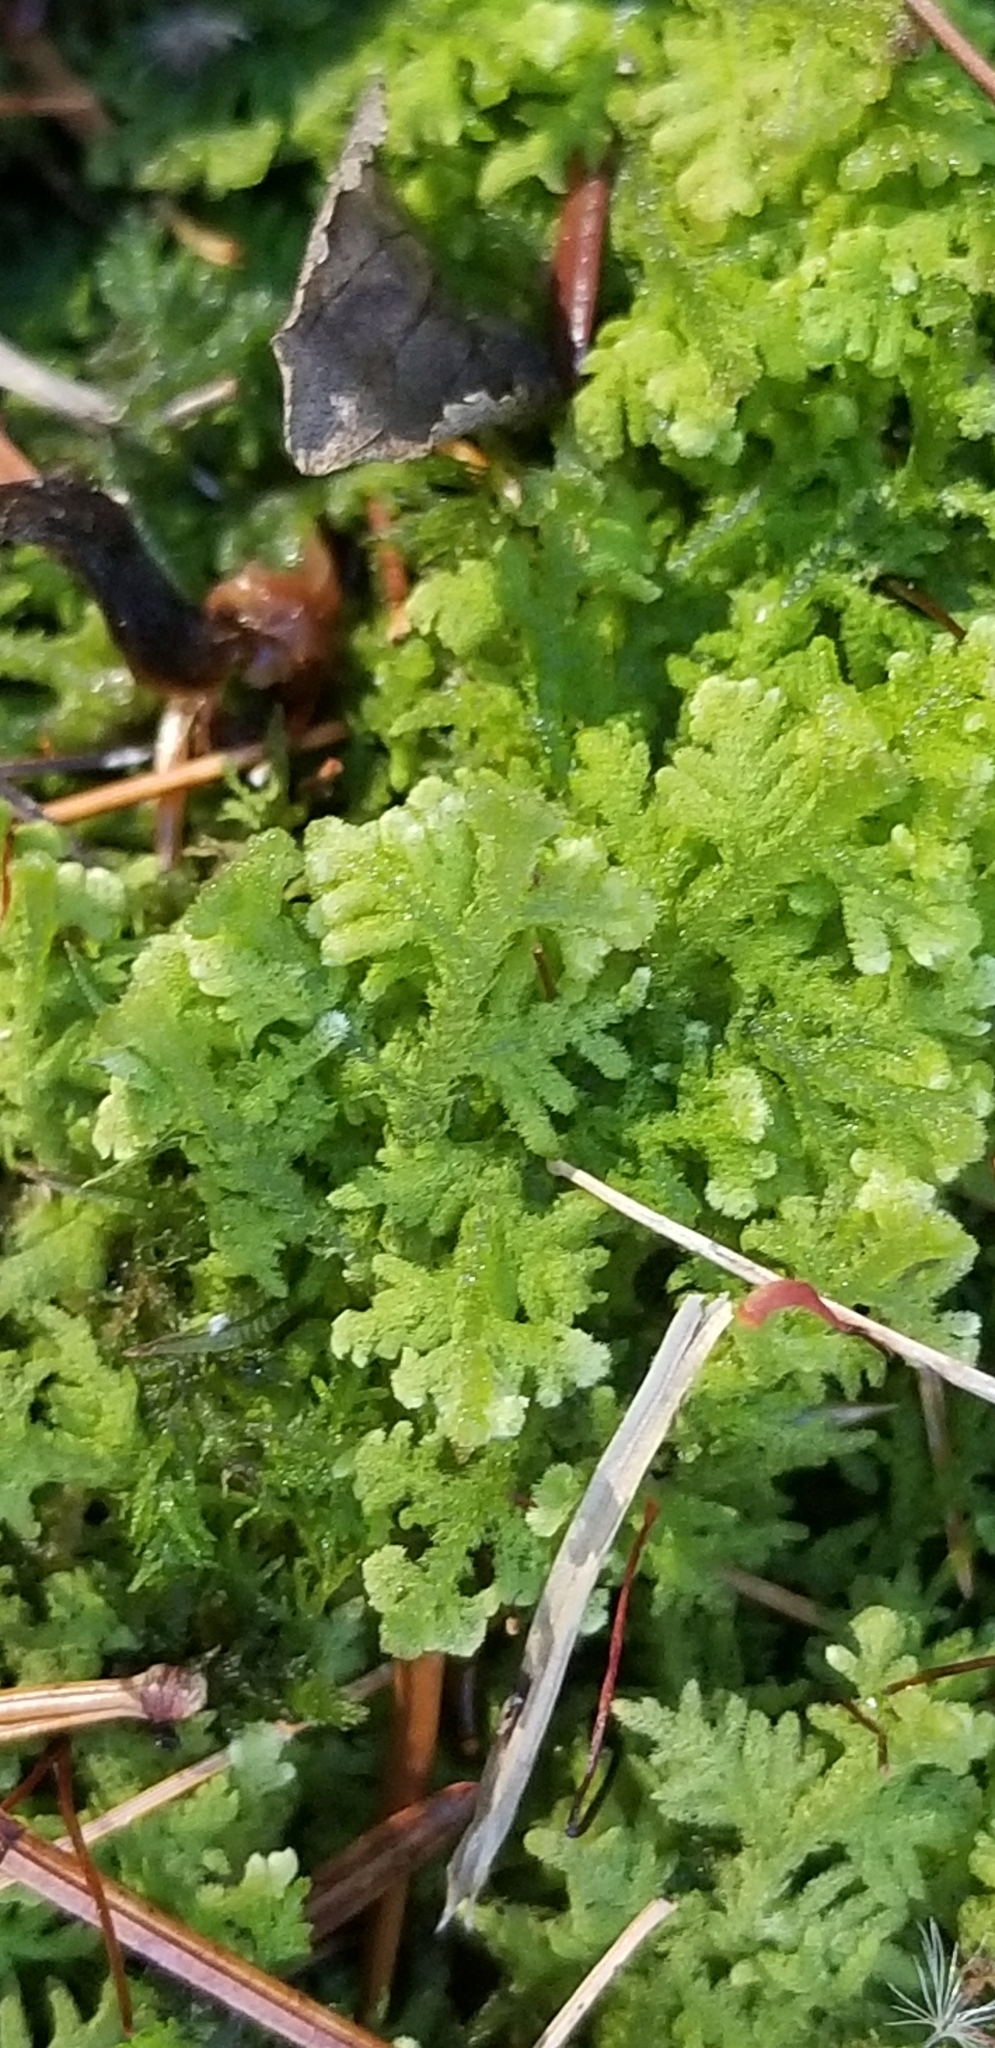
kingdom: Plantae
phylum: Marchantiophyta
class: Jungermanniopsida
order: Jungermanniales
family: Trichocoleaceae
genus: Trichocolea
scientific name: Trichocolea tomentella
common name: Woolly liverwort
